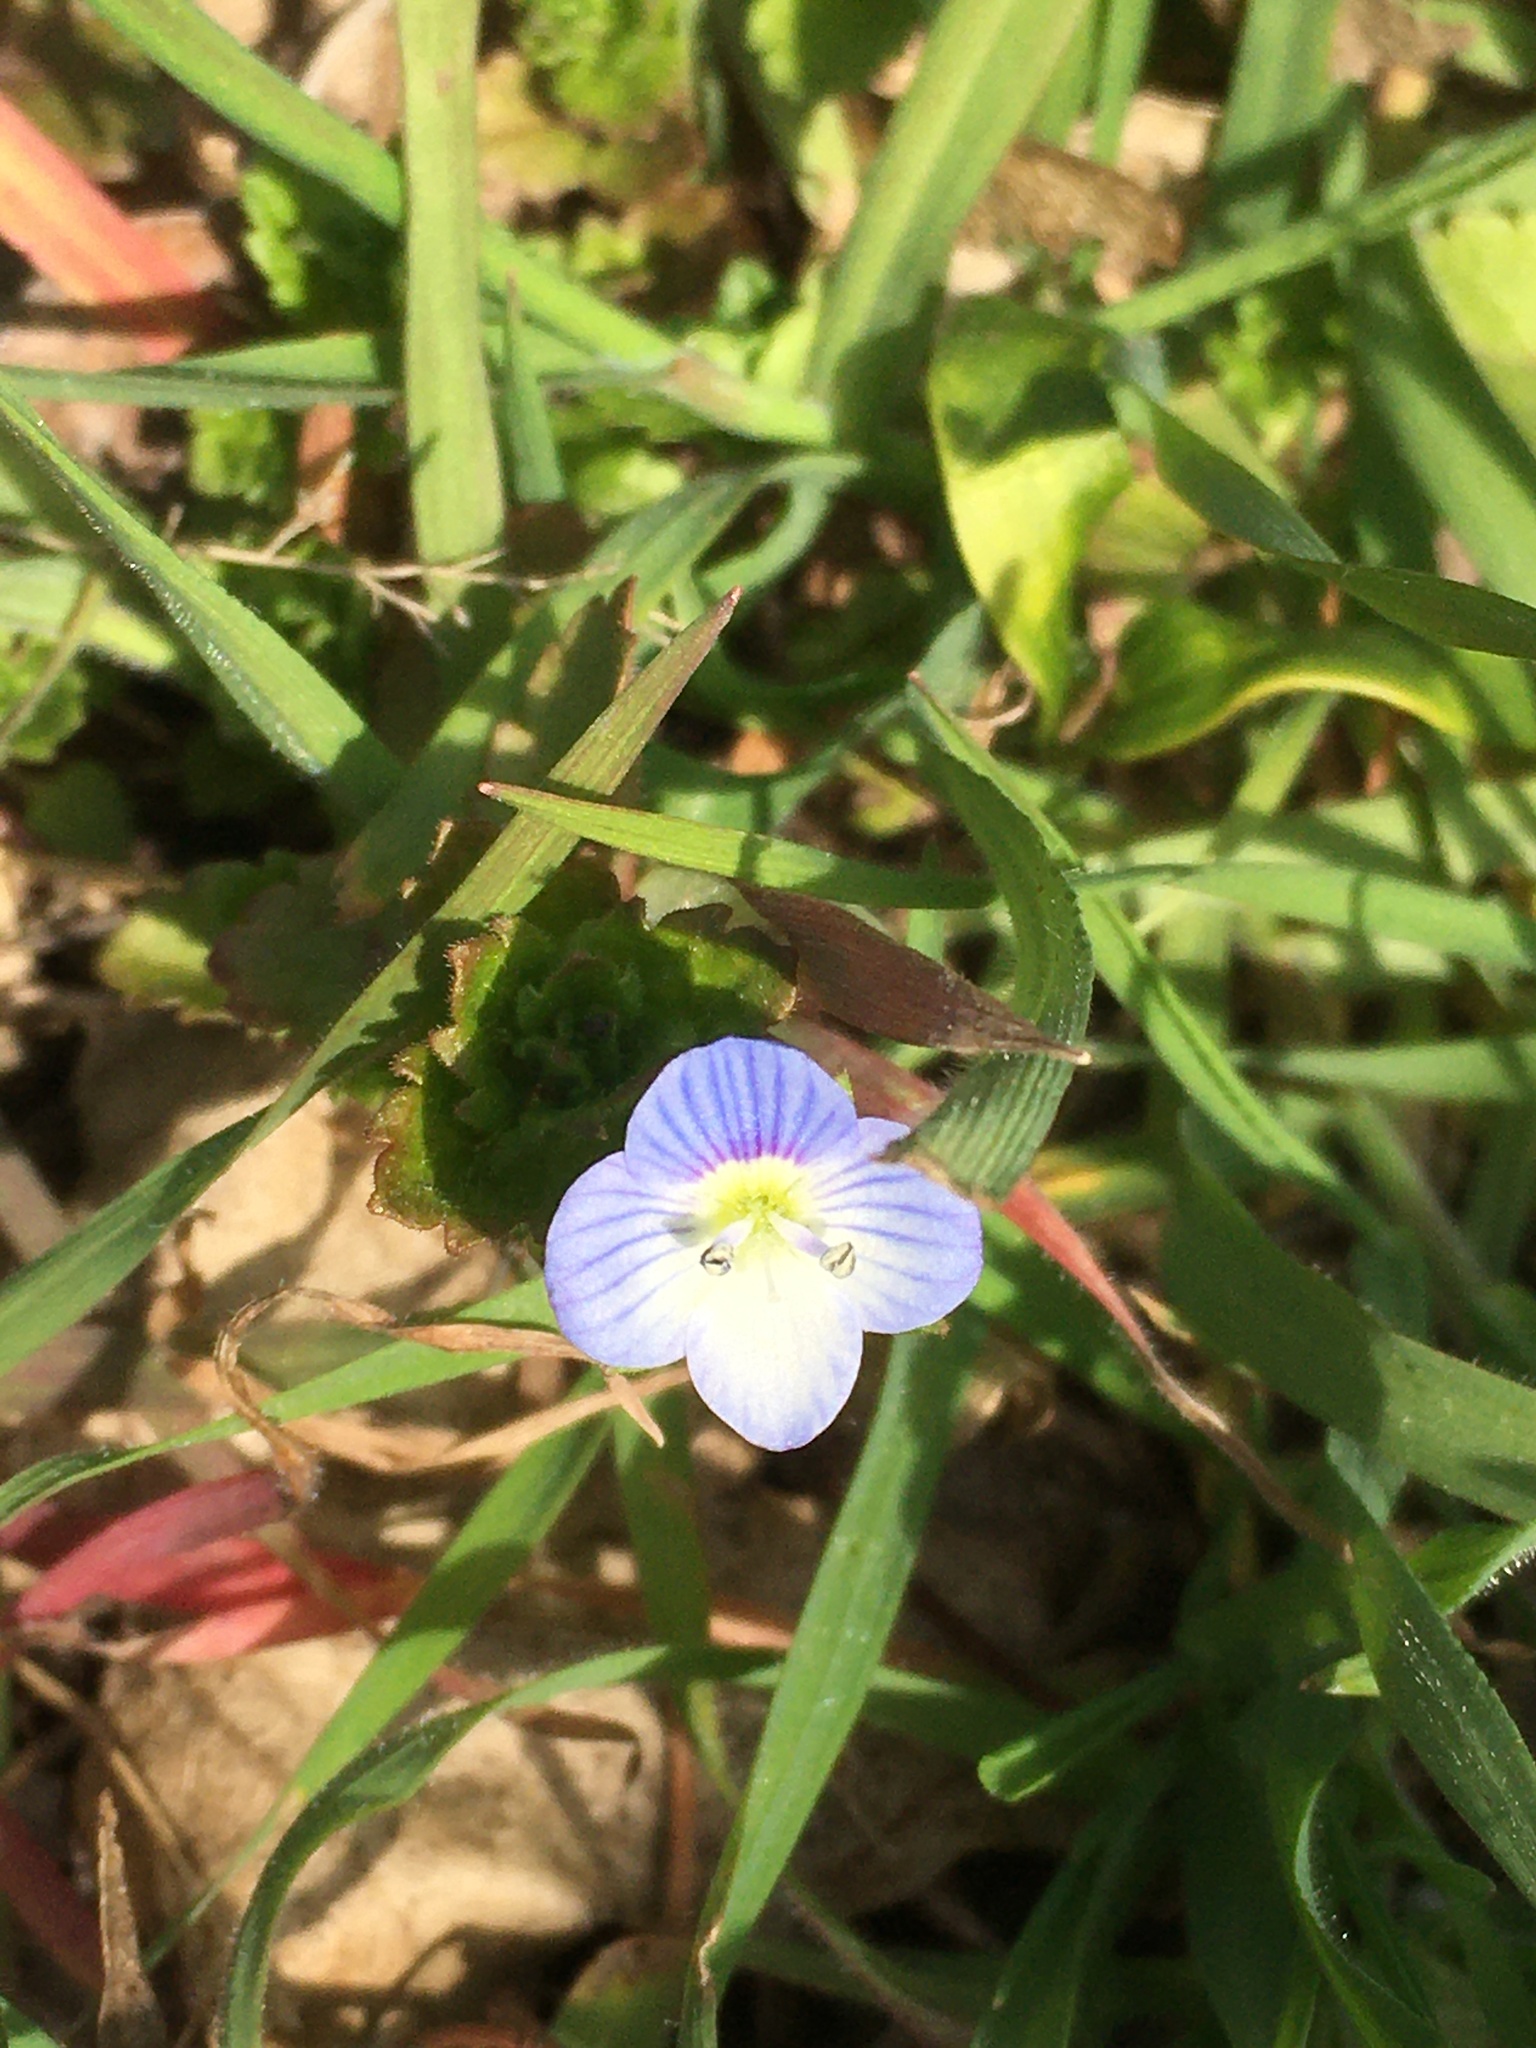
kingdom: Plantae
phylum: Tracheophyta
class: Magnoliopsida
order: Lamiales
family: Plantaginaceae
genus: Veronica
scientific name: Veronica persica
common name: Common field-speedwell
